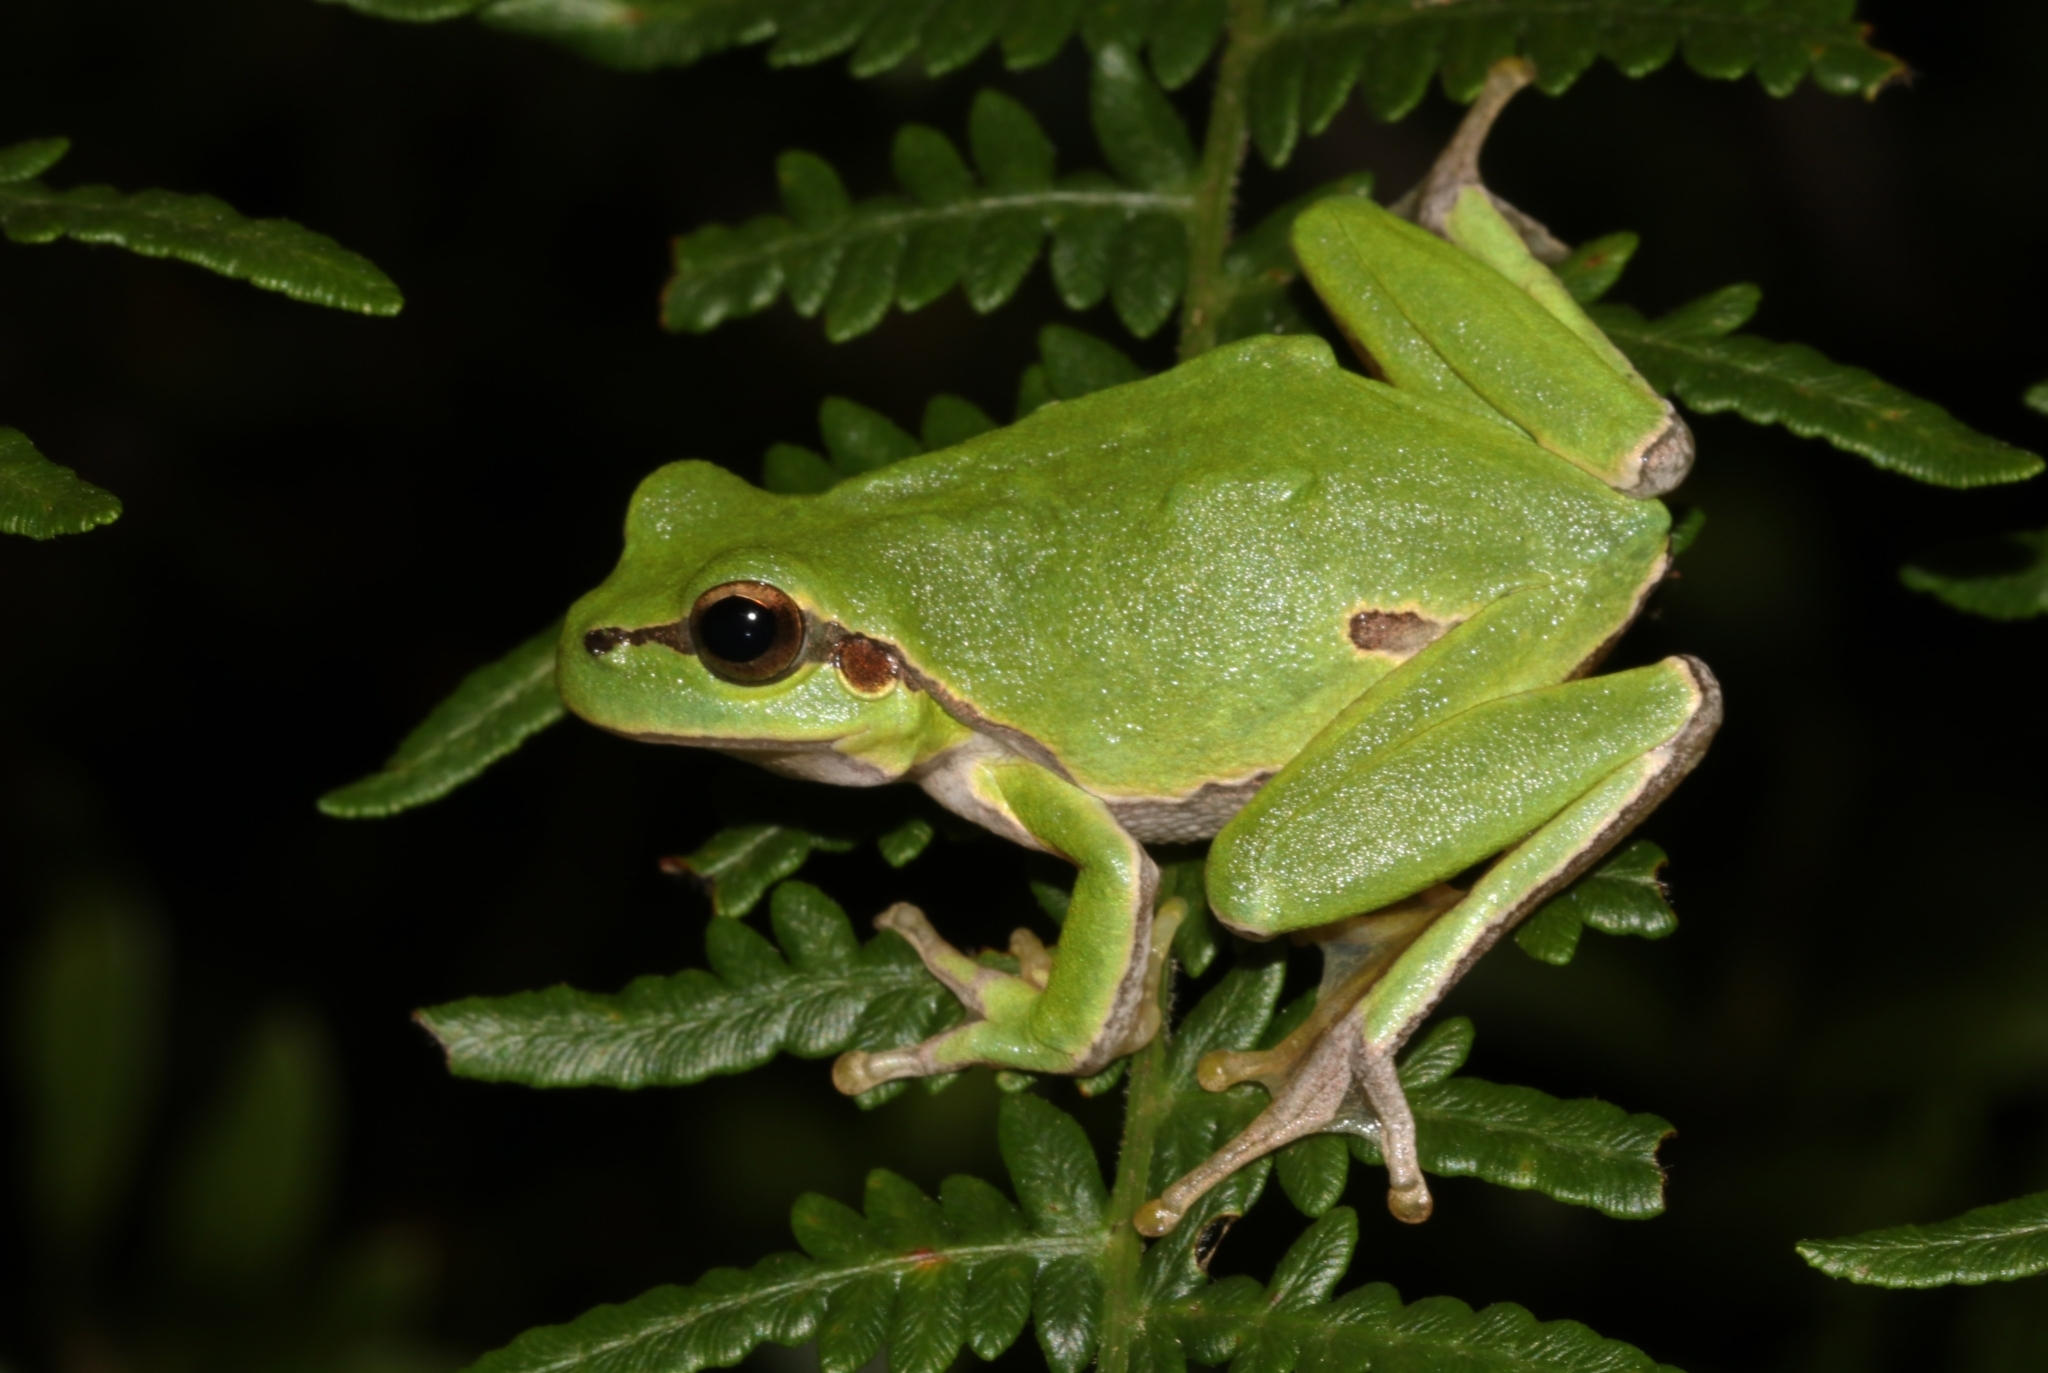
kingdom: Animalia
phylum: Chordata
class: Amphibia
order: Anura
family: Hylidae
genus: Hyla
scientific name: Hyla arborea
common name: Common tree frog
